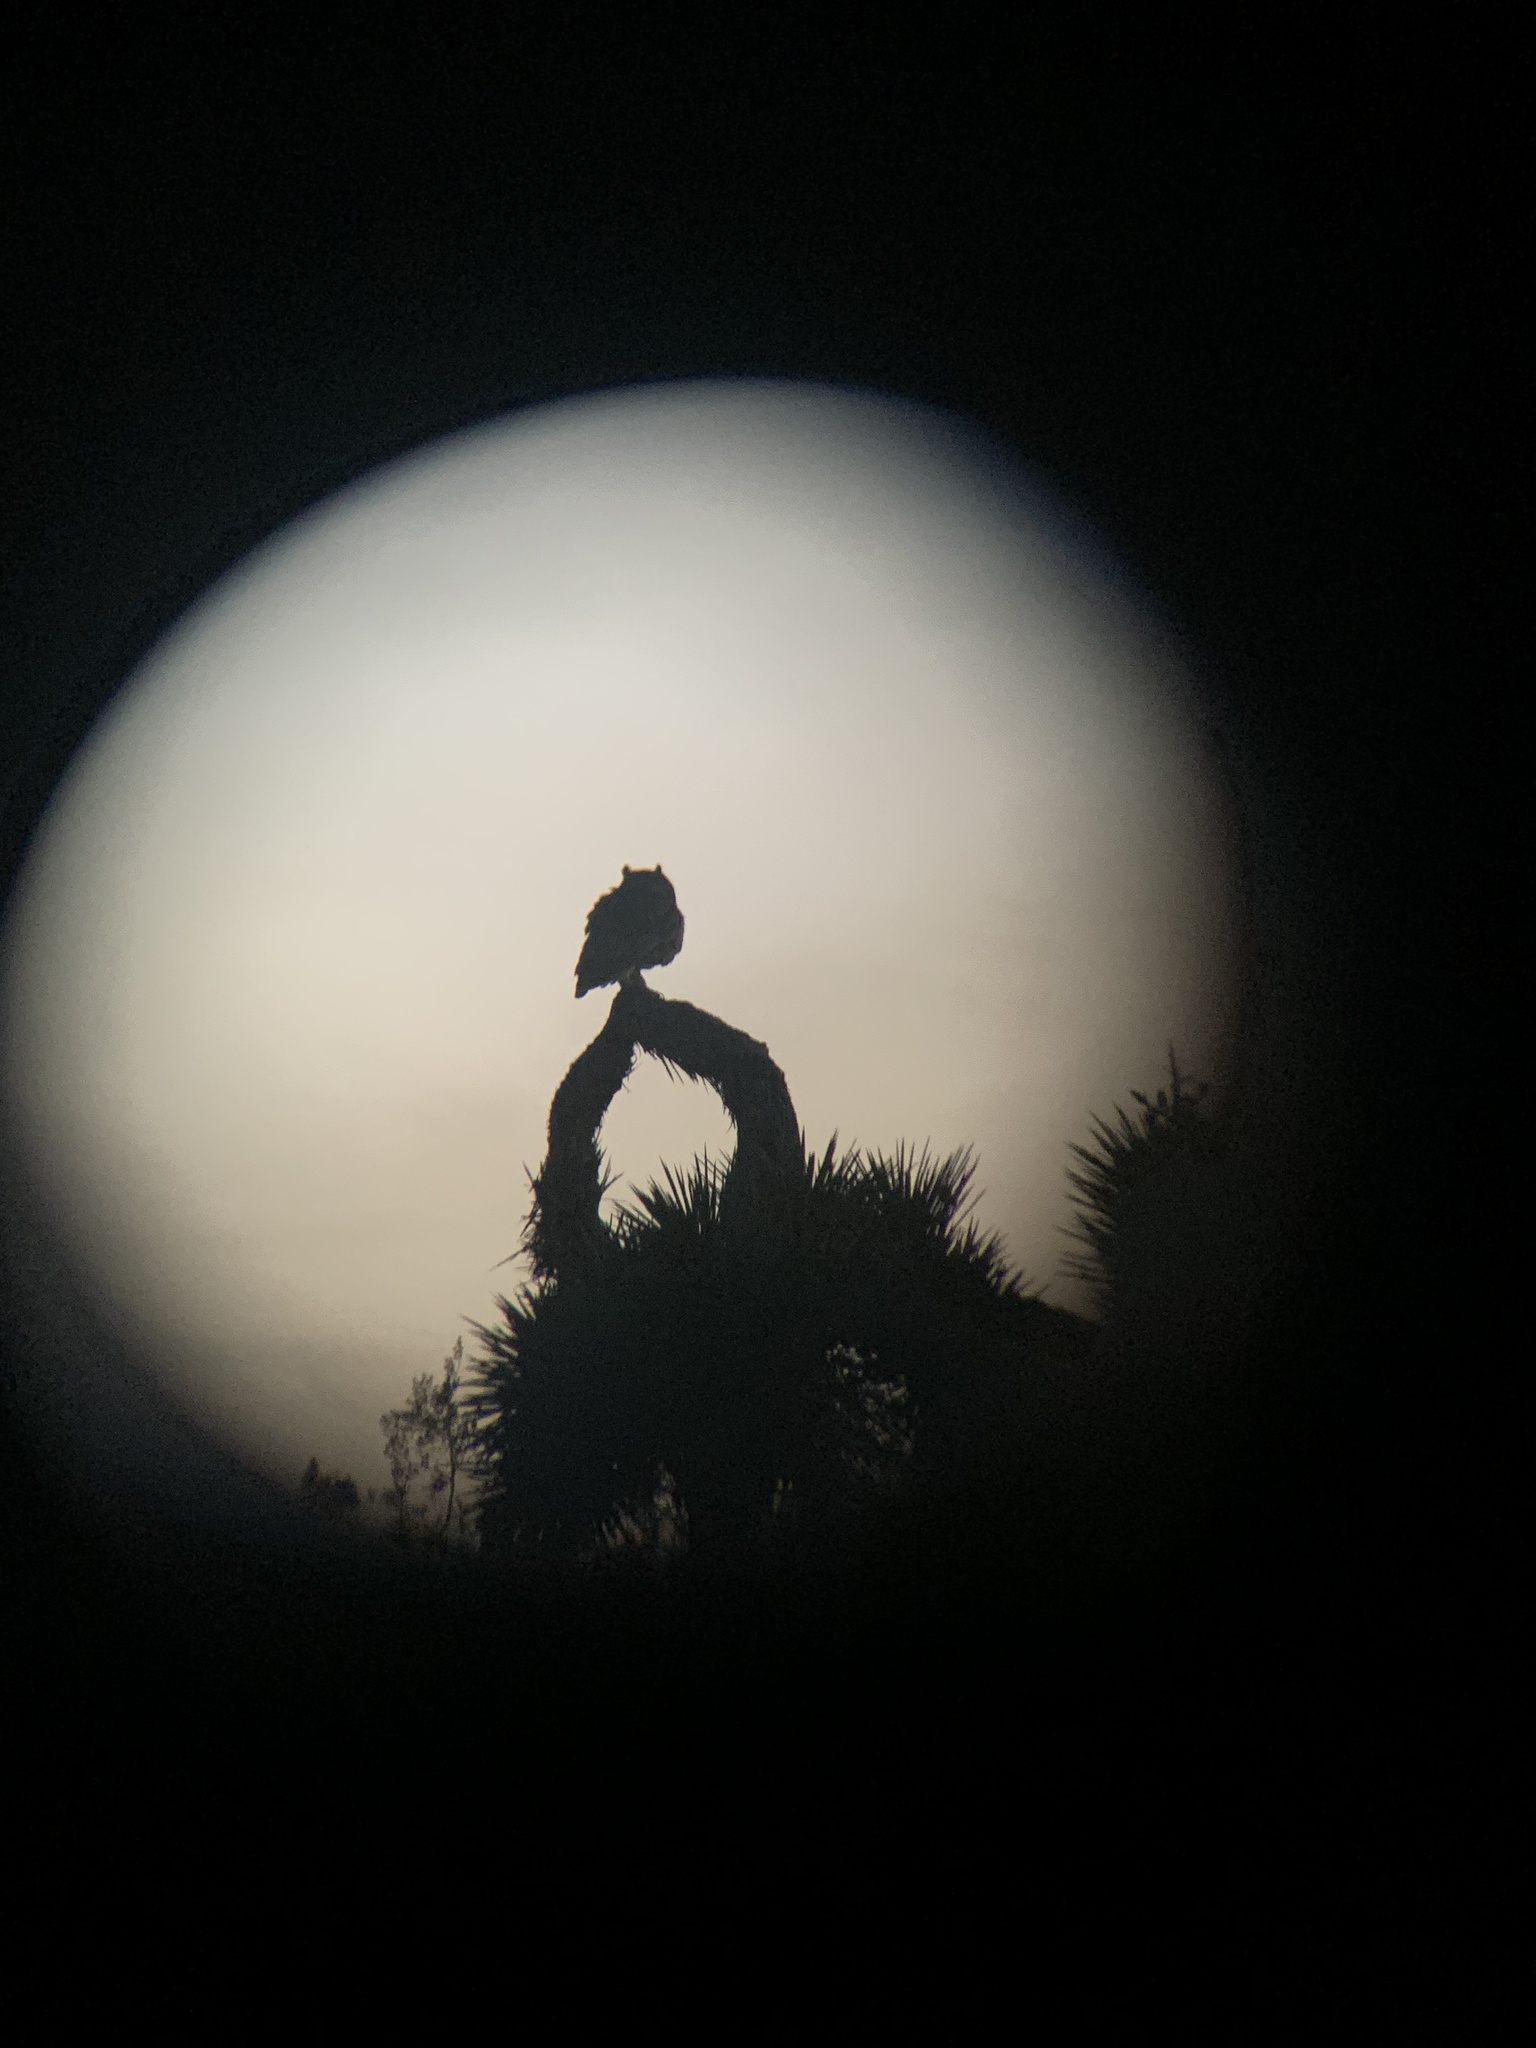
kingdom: Animalia
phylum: Chordata
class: Aves
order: Strigiformes
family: Strigidae
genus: Bubo
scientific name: Bubo virginianus
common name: Great horned owl
